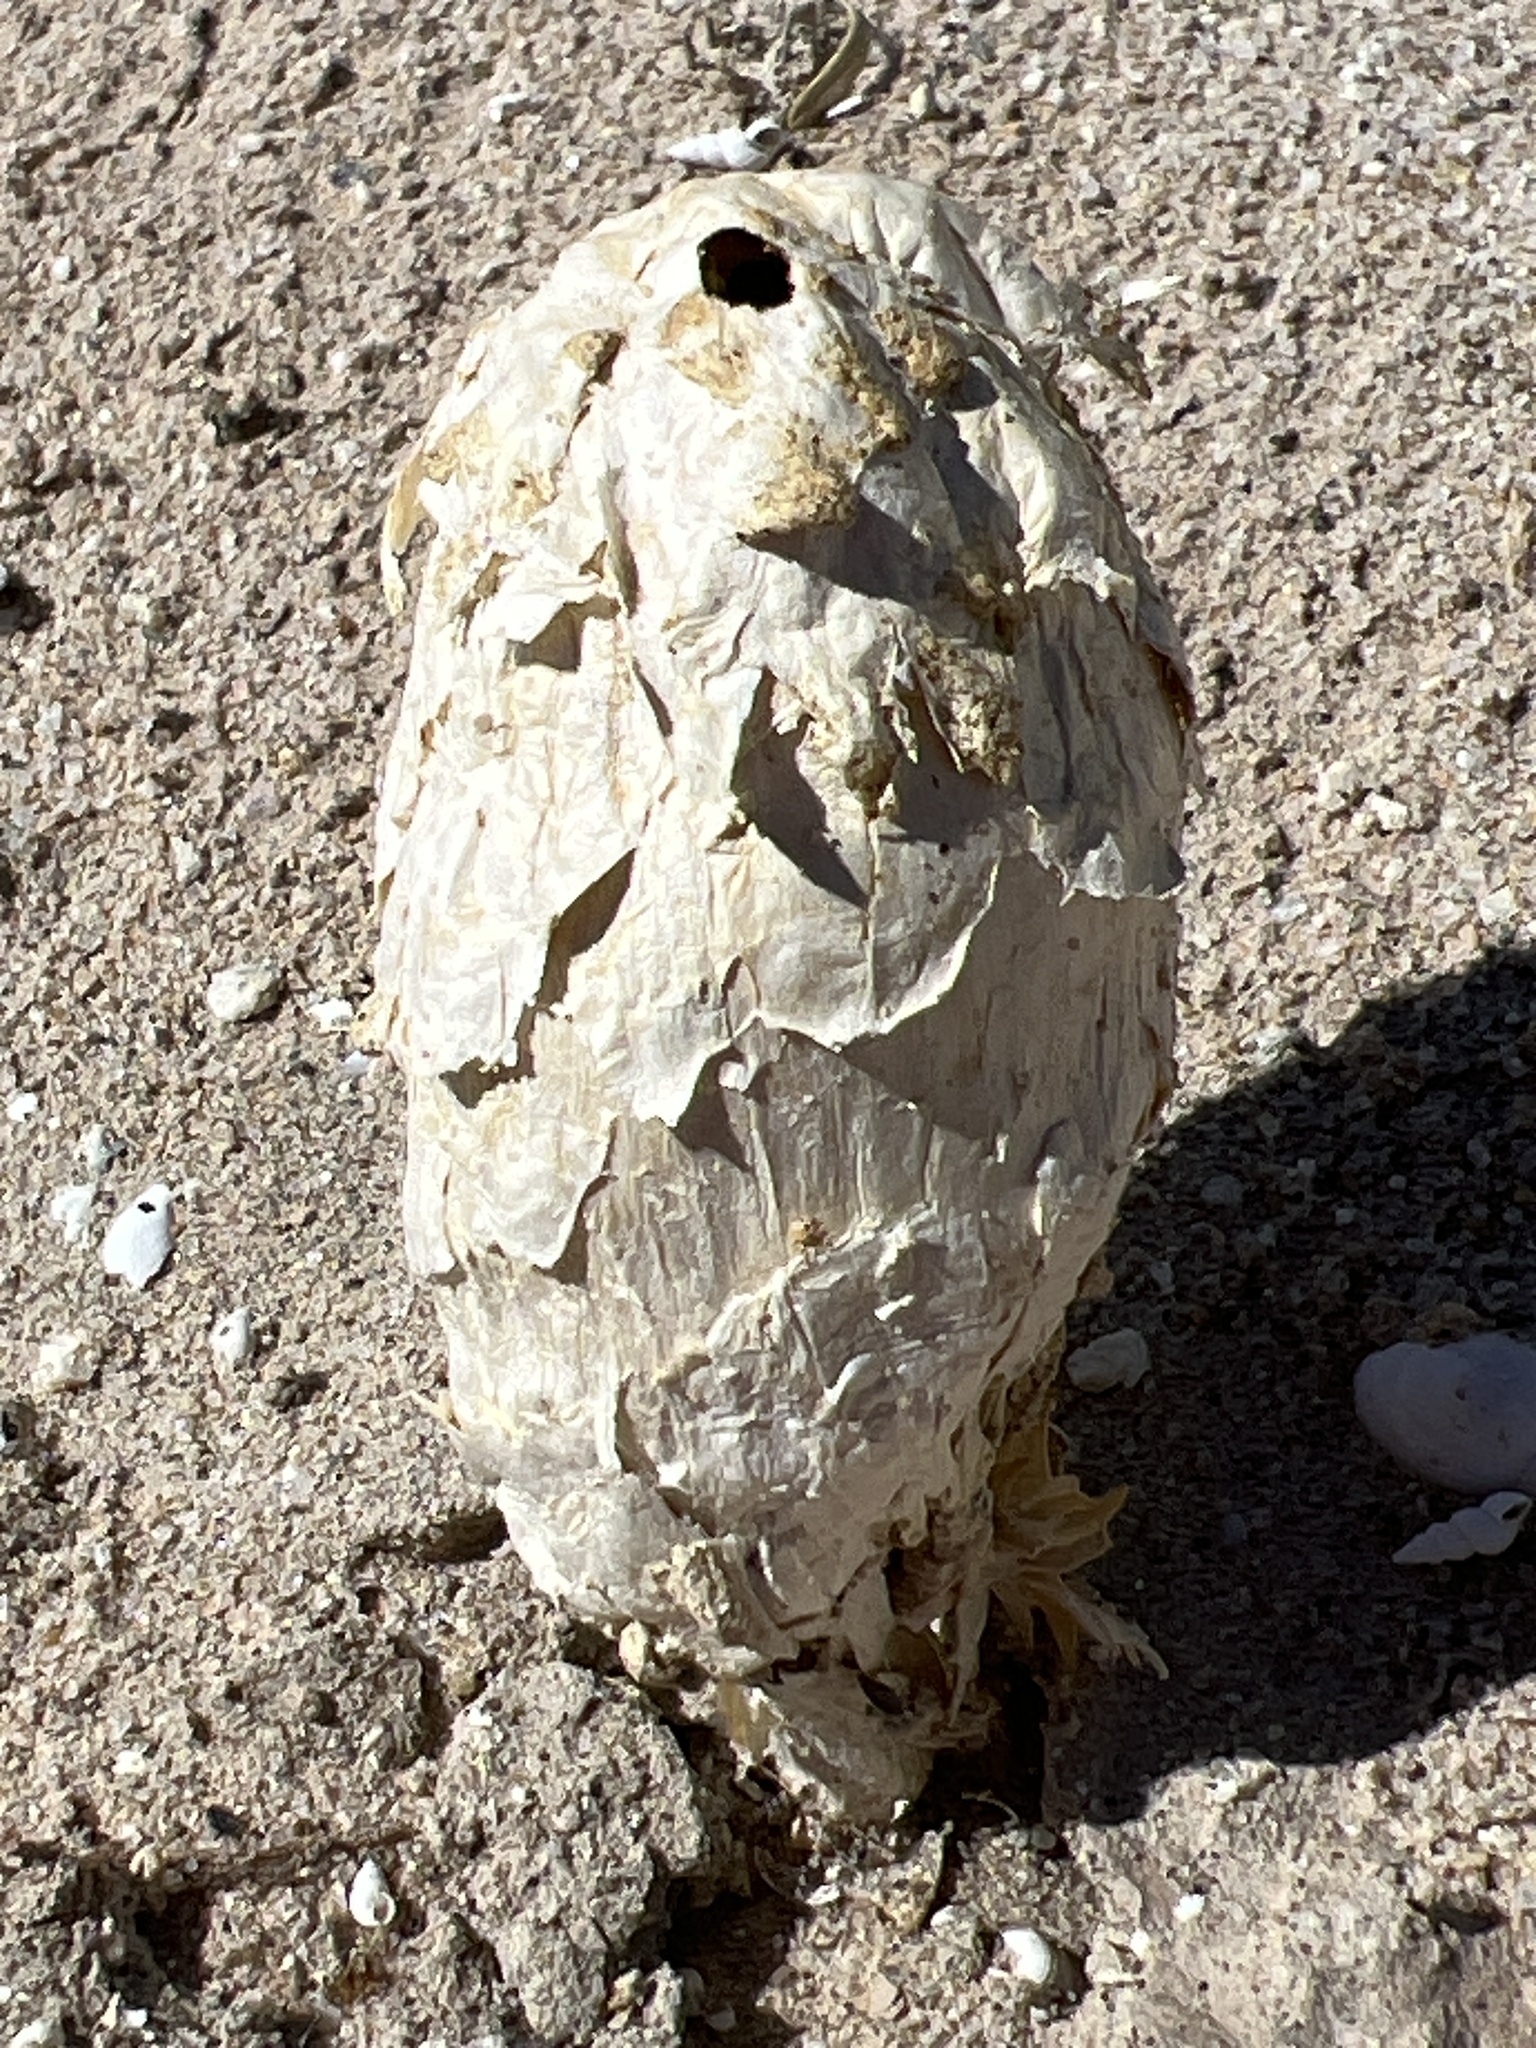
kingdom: Fungi
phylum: Basidiomycota
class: Agaricomycetes
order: Agaricales
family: Agaricaceae
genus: Podaxis
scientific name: Podaxis pistillaris
